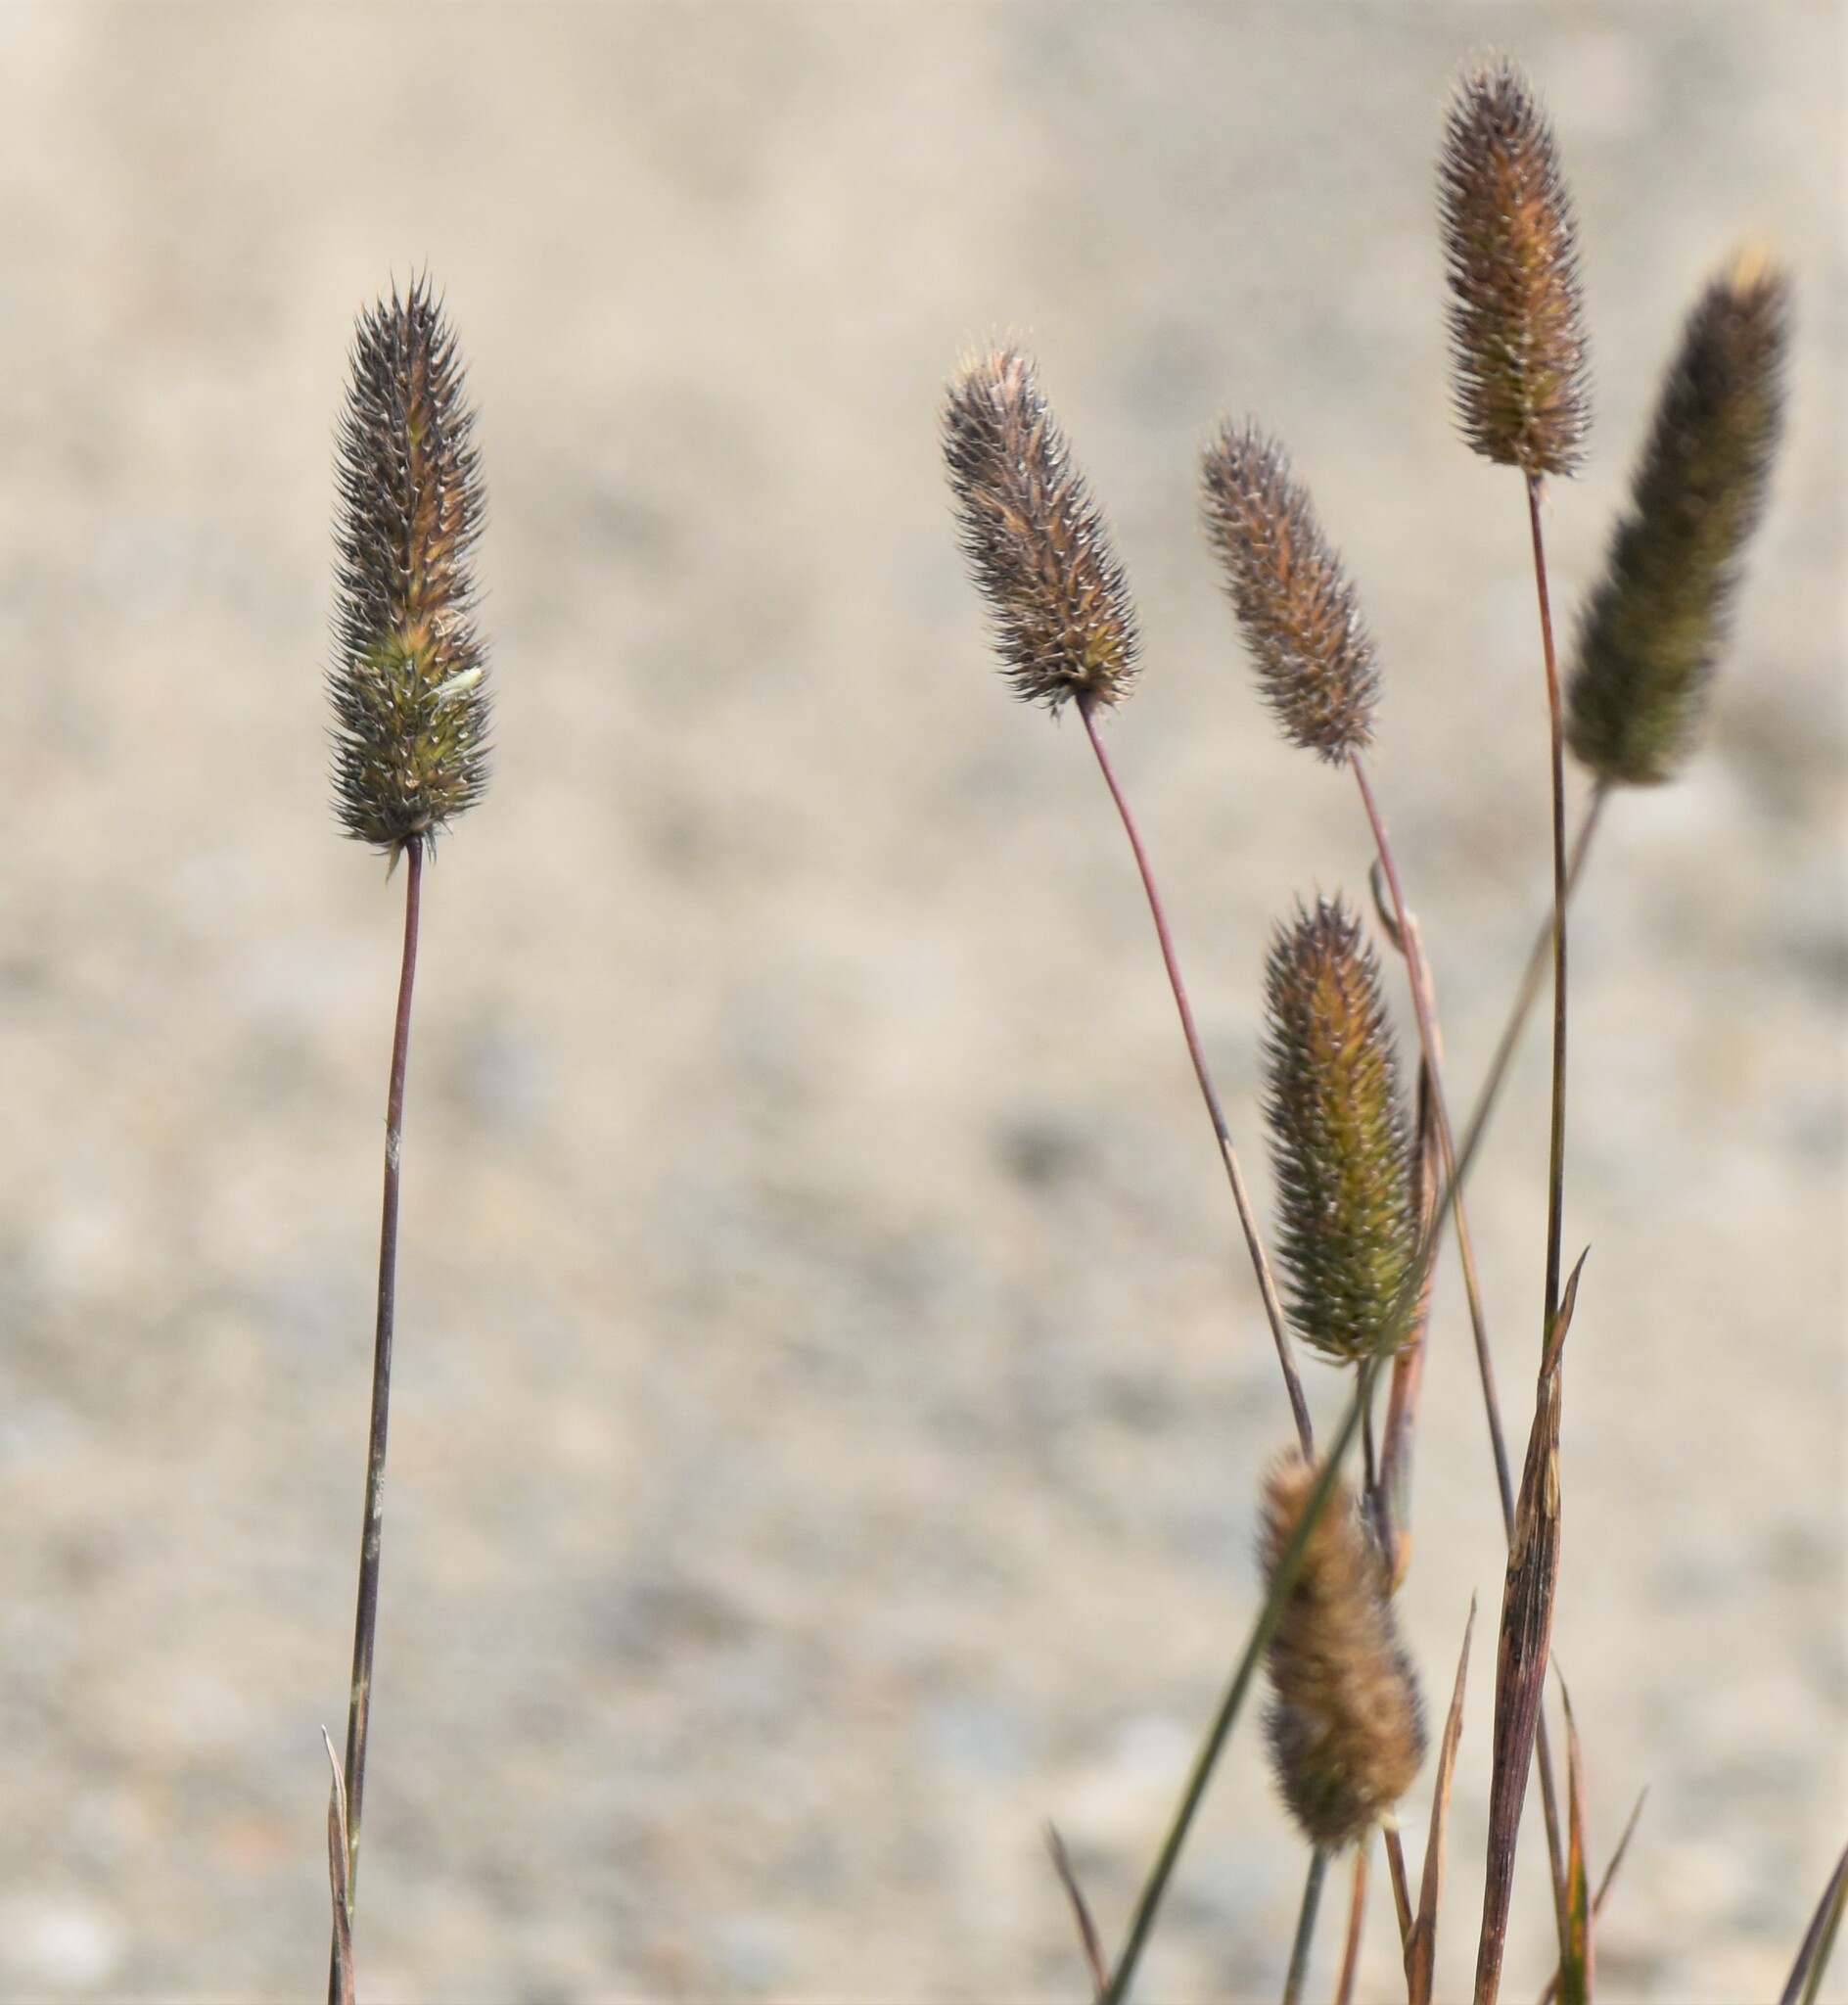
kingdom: Plantae
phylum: Tracheophyta
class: Liliopsida
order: Poales
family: Poaceae
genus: Phleum
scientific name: Phleum alpinum
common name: Alpine cat's-tail
